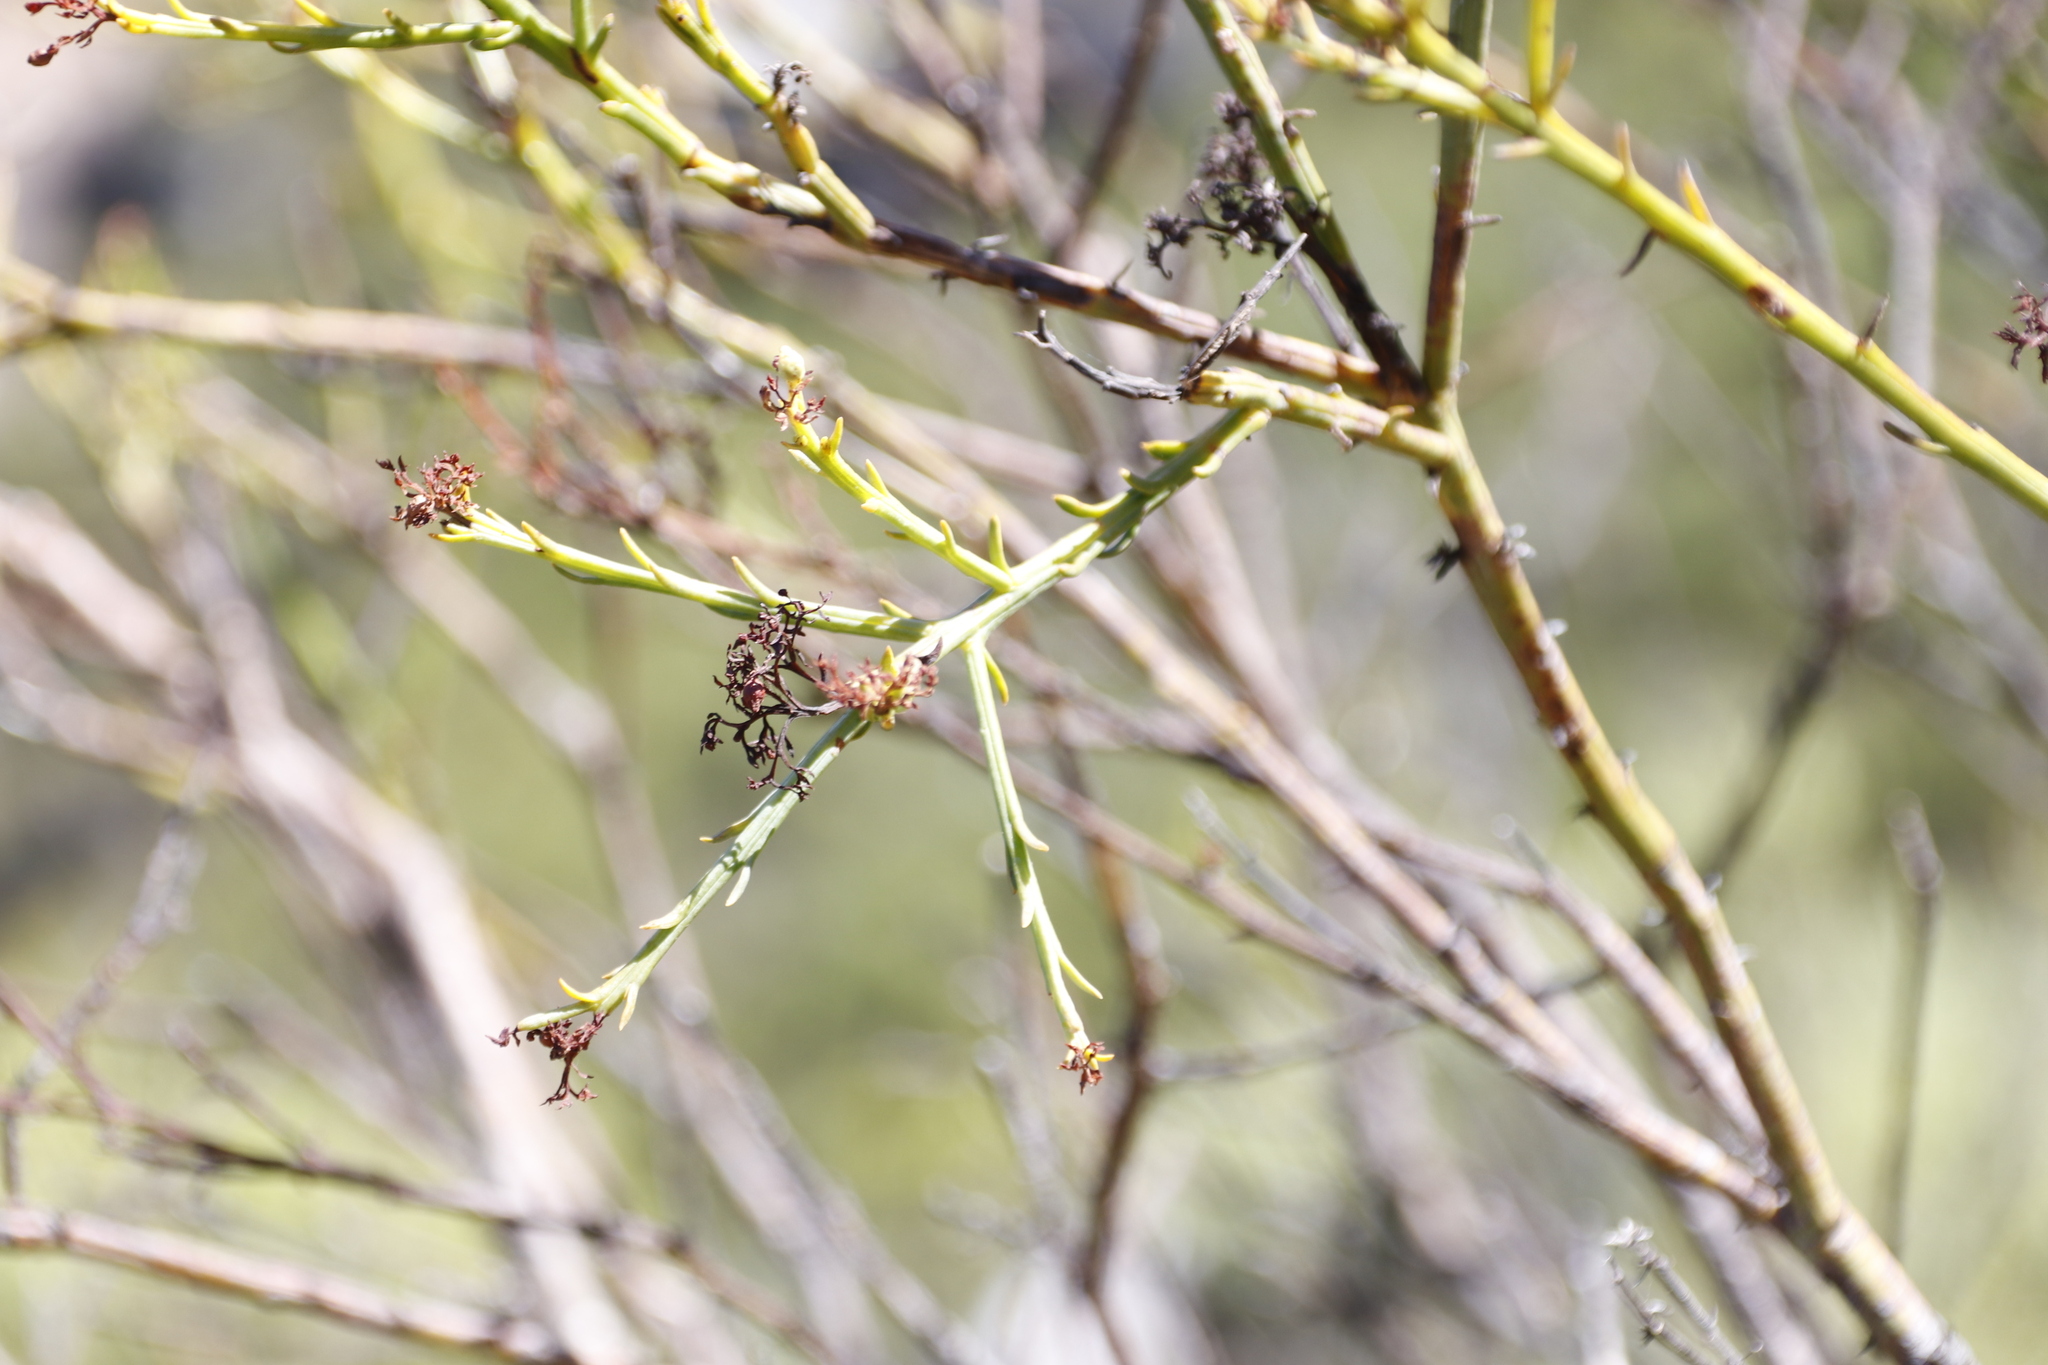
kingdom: Plantae
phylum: Tracheophyta
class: Magnoliopsida
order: Santalales
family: Thesiaceae
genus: Thesium
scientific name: Thesium strictum
